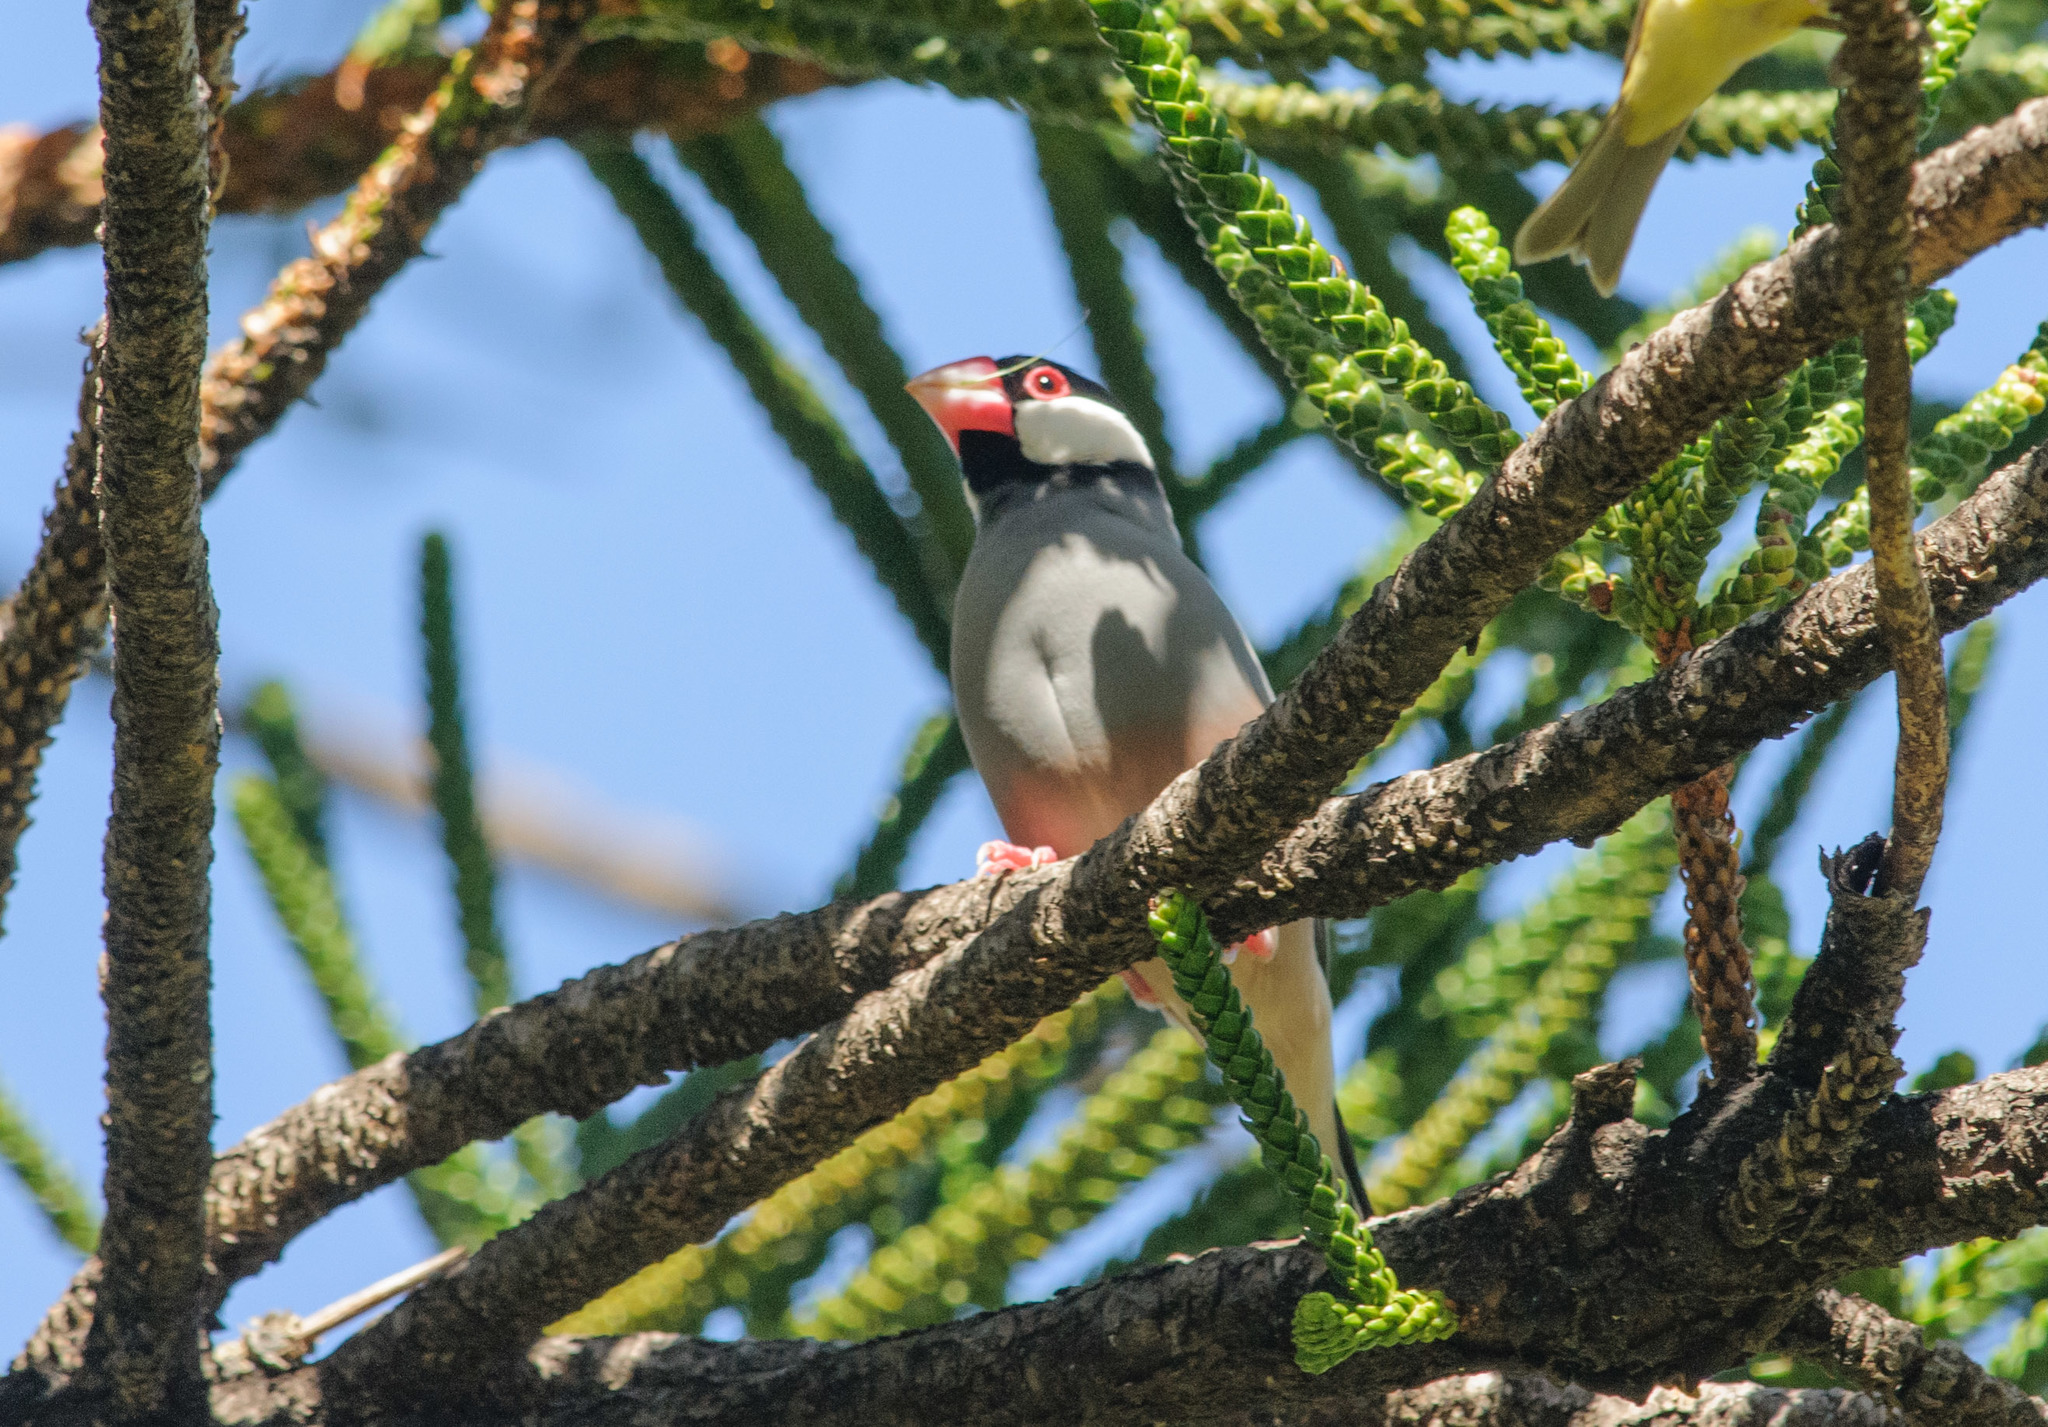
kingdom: Animalia
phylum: Chordata
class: Aves
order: Passeriformes
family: Estrildidae
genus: Lonchura
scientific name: Lonchura oryzivora
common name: Java sparrow
